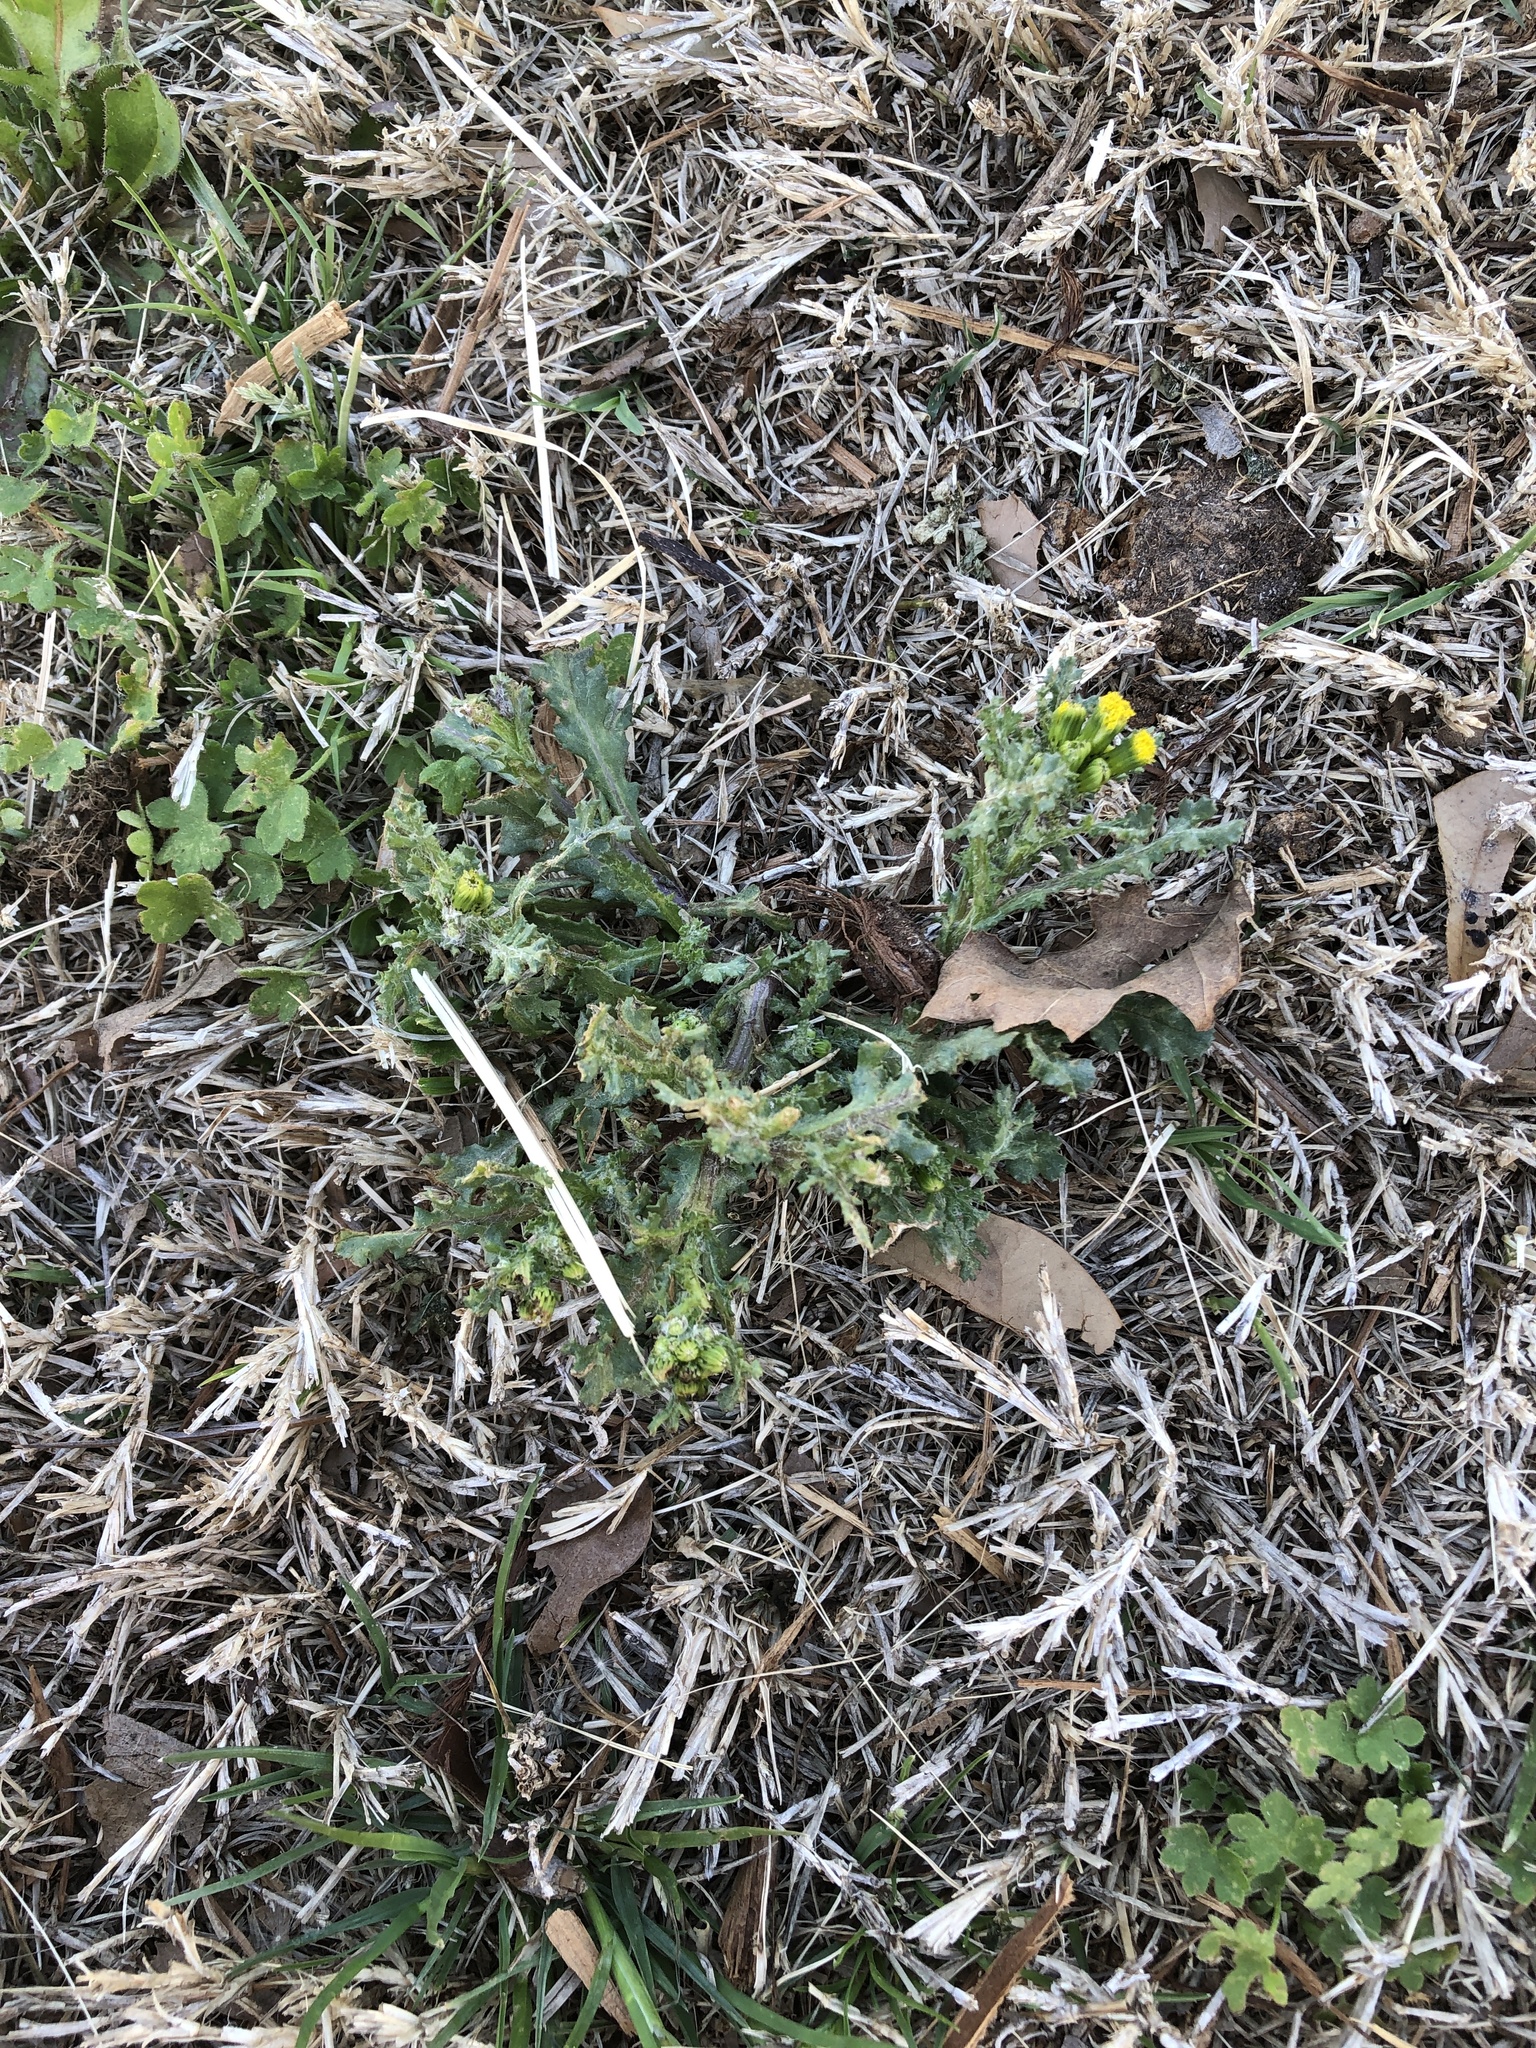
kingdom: Plantae
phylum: Tracheophyta
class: Magnoliopsida
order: Asterales
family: Asteraceae
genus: Senecio
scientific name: Senecio vulgaris
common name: Old-man-in-the-spring
